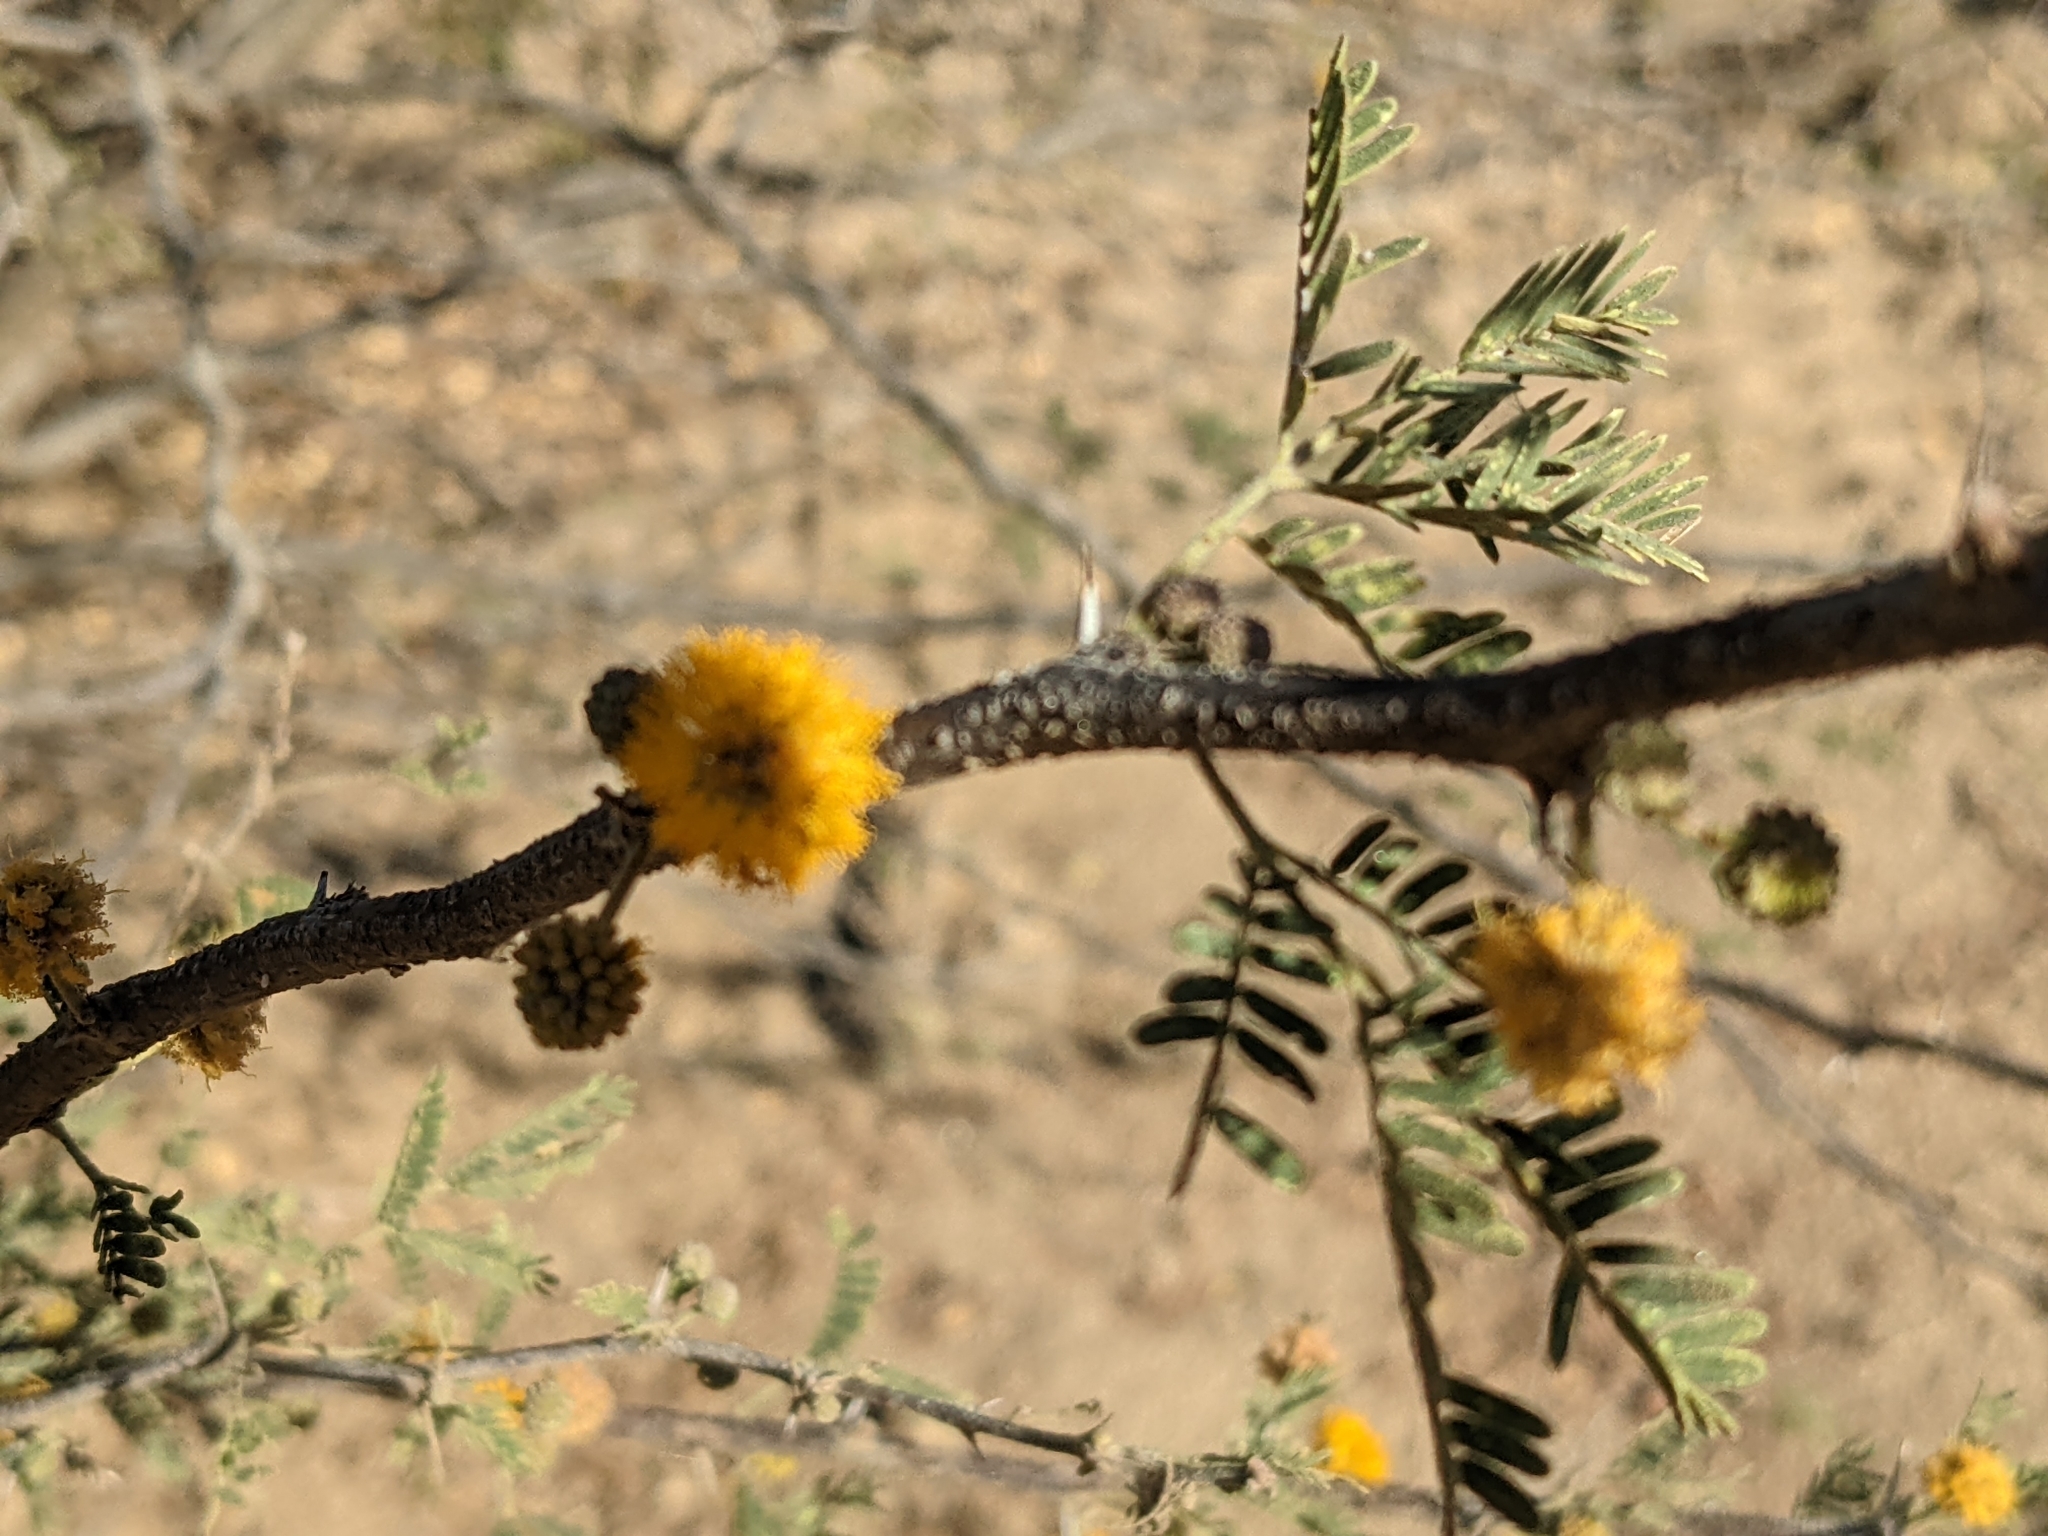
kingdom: Plantae
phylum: Tracheophyta
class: Magnoliopsida
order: Fabales
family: Fabaceae
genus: Vachellia
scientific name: Vachellia farnesiana
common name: Sweet acacia
